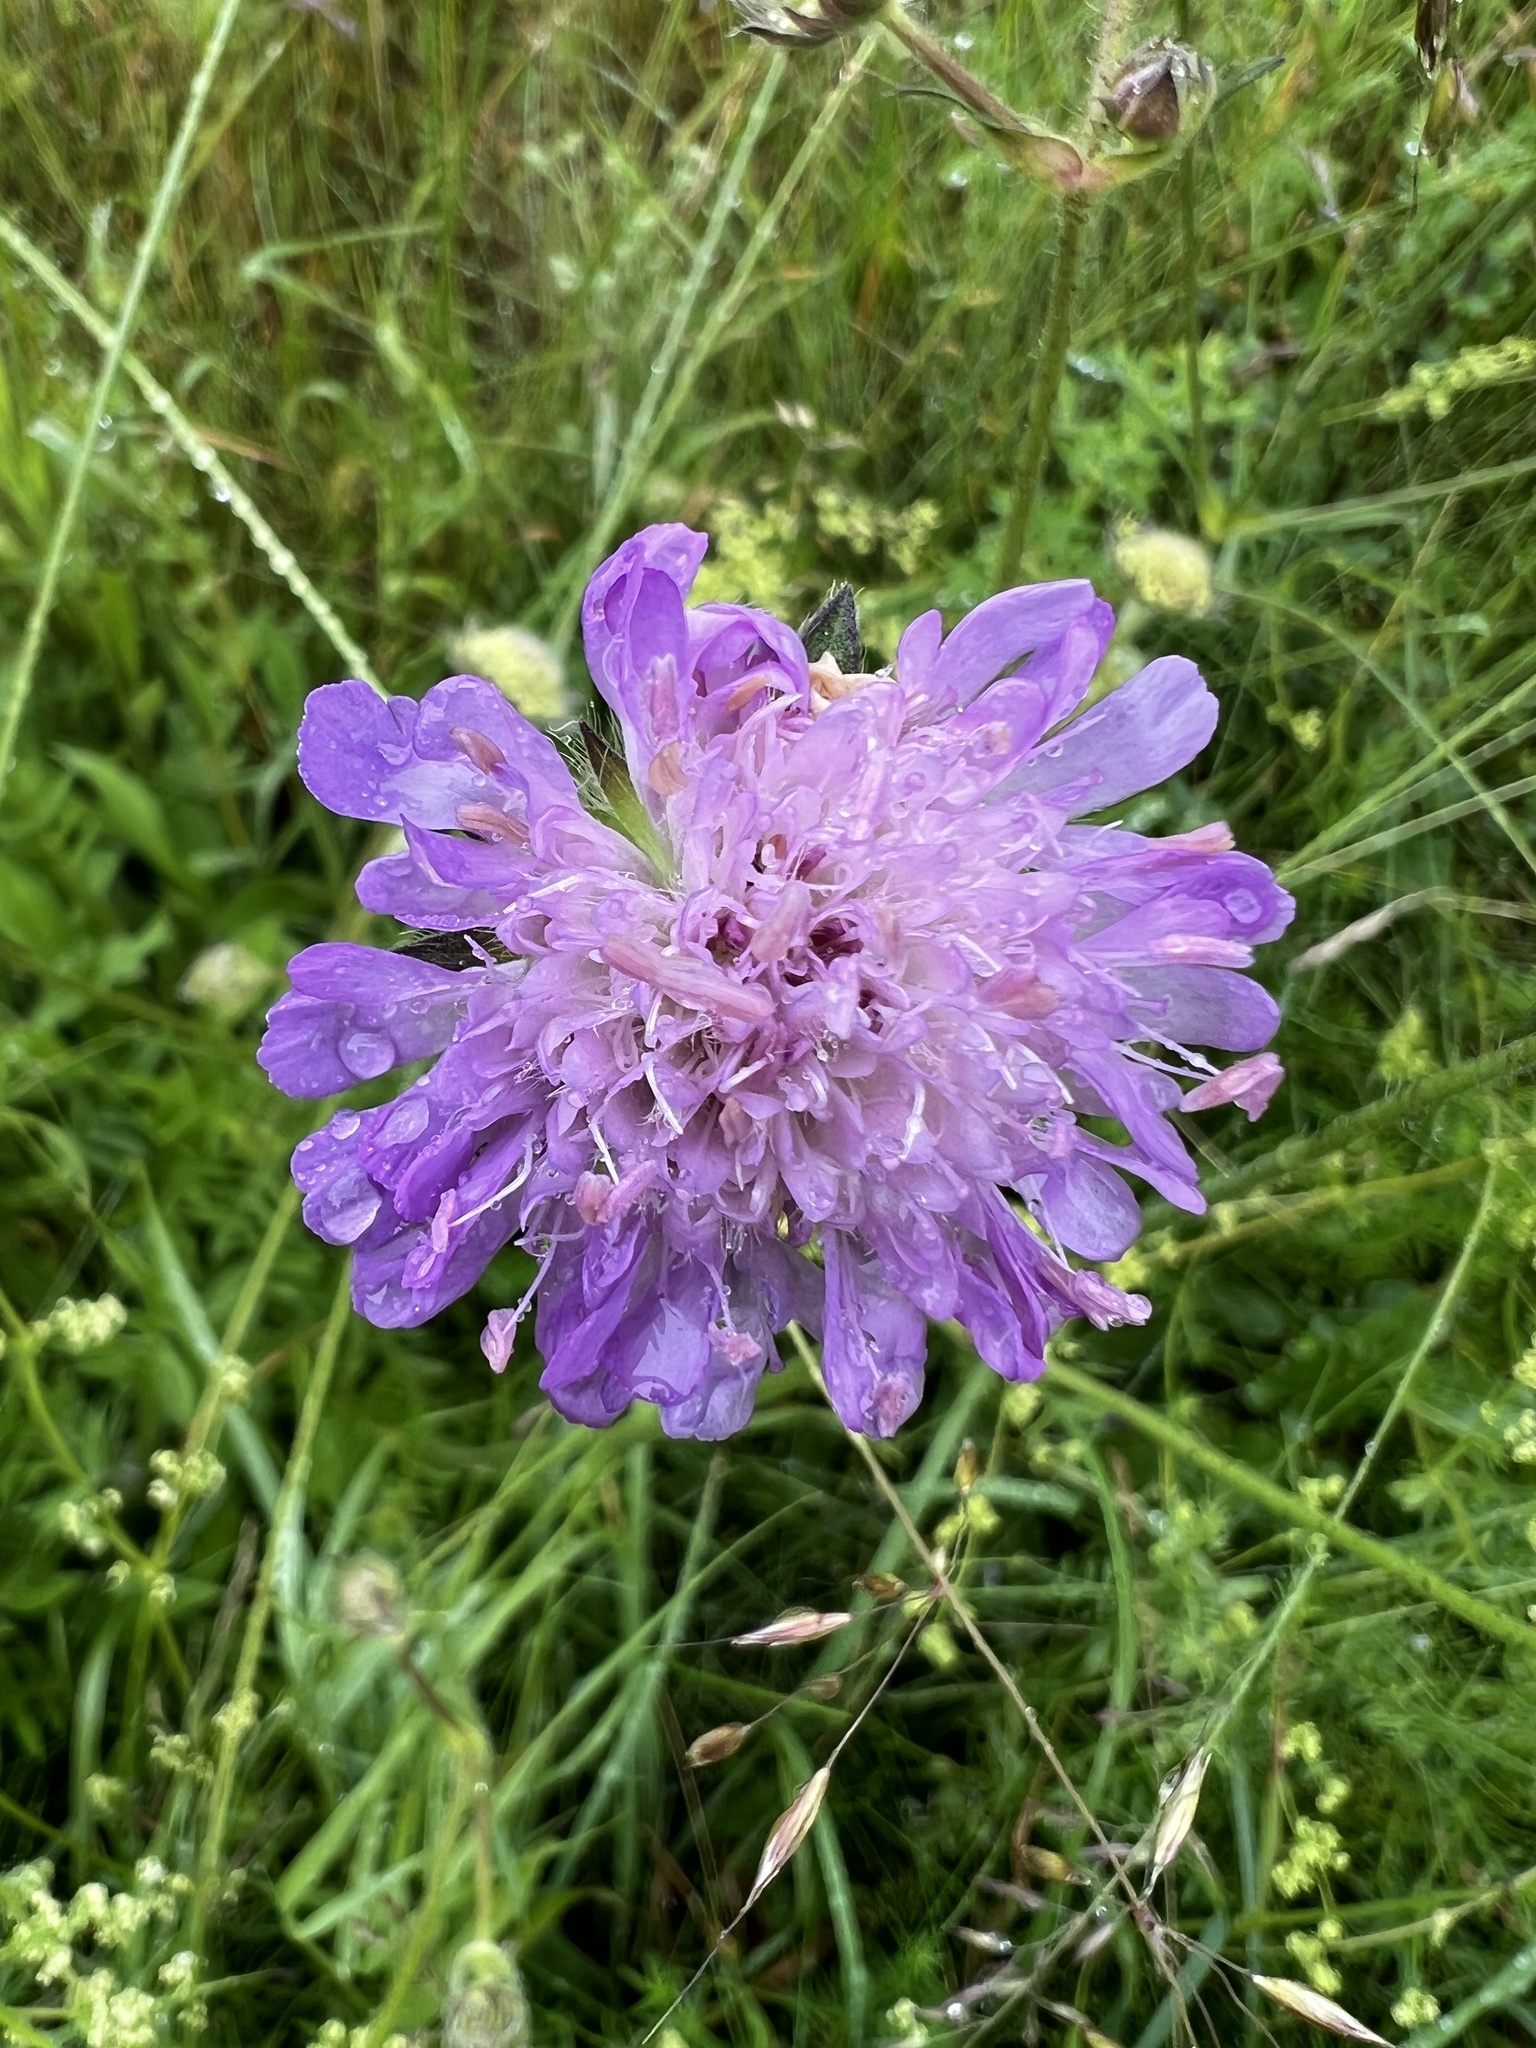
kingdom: Plantae
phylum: Tracheophyta
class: Magnoliopsida
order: Dipsacales
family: Caprifoliaceae
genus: Knautia
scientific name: Knautia arvensis
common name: Field scabiosa
